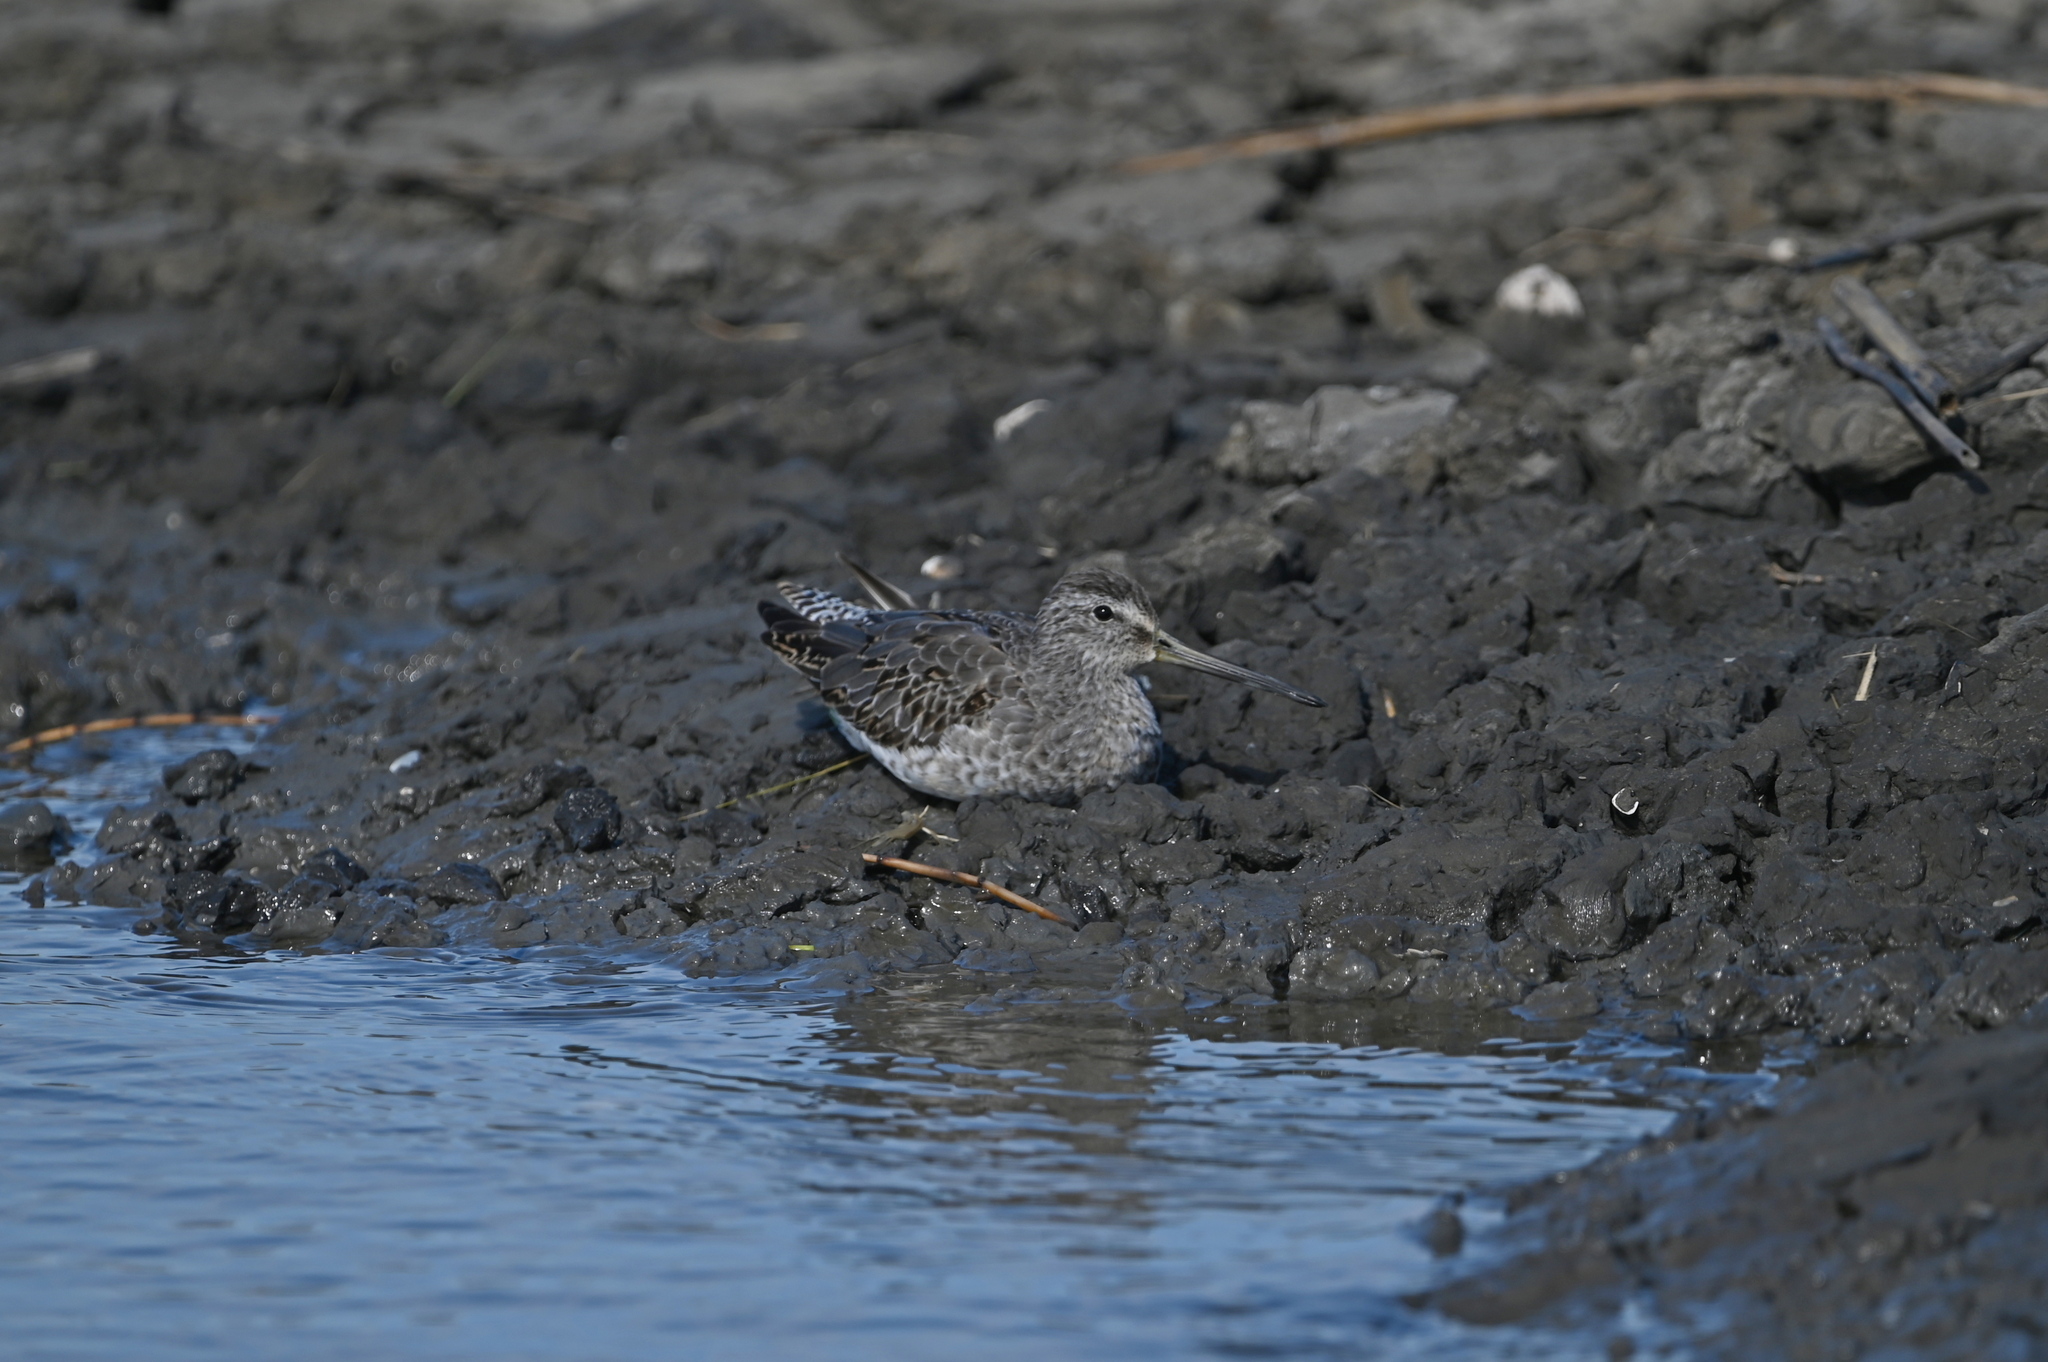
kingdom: Animalia
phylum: Chordata
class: Aves
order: Charadriiformes
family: Scolopacidae
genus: Limnodromus
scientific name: Limnodromus griseus
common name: Short-billed dowitcher
